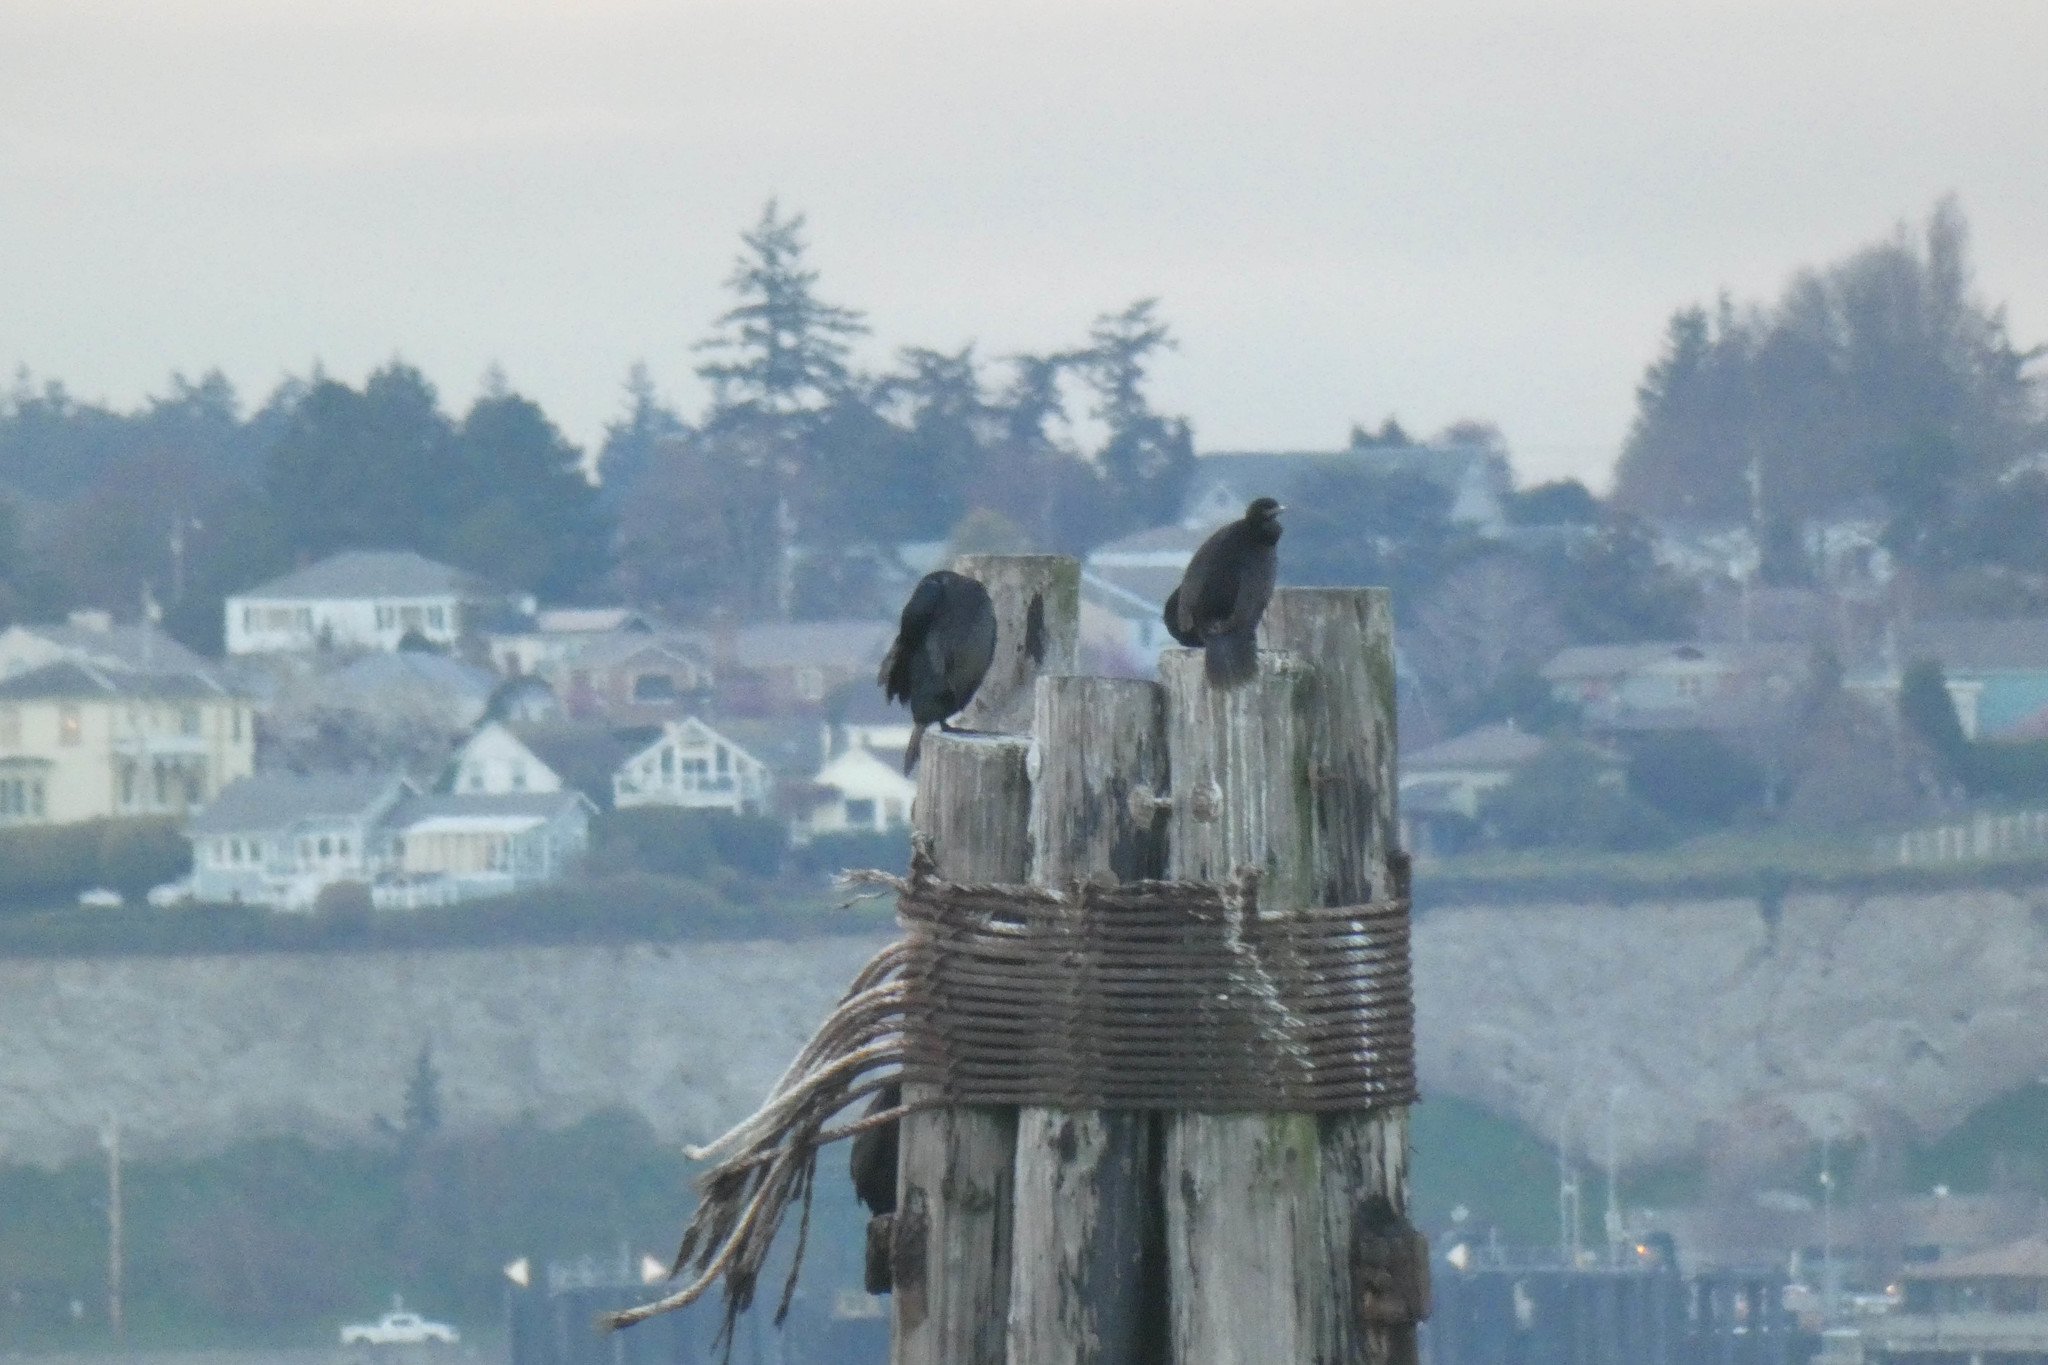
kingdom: Animalia
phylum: Chordata
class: Aves
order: Suliformes
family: Phalacrocoracidae
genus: Phalacrocorax
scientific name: Phalacrocorax pelagicus
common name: Pelagic cormorant
